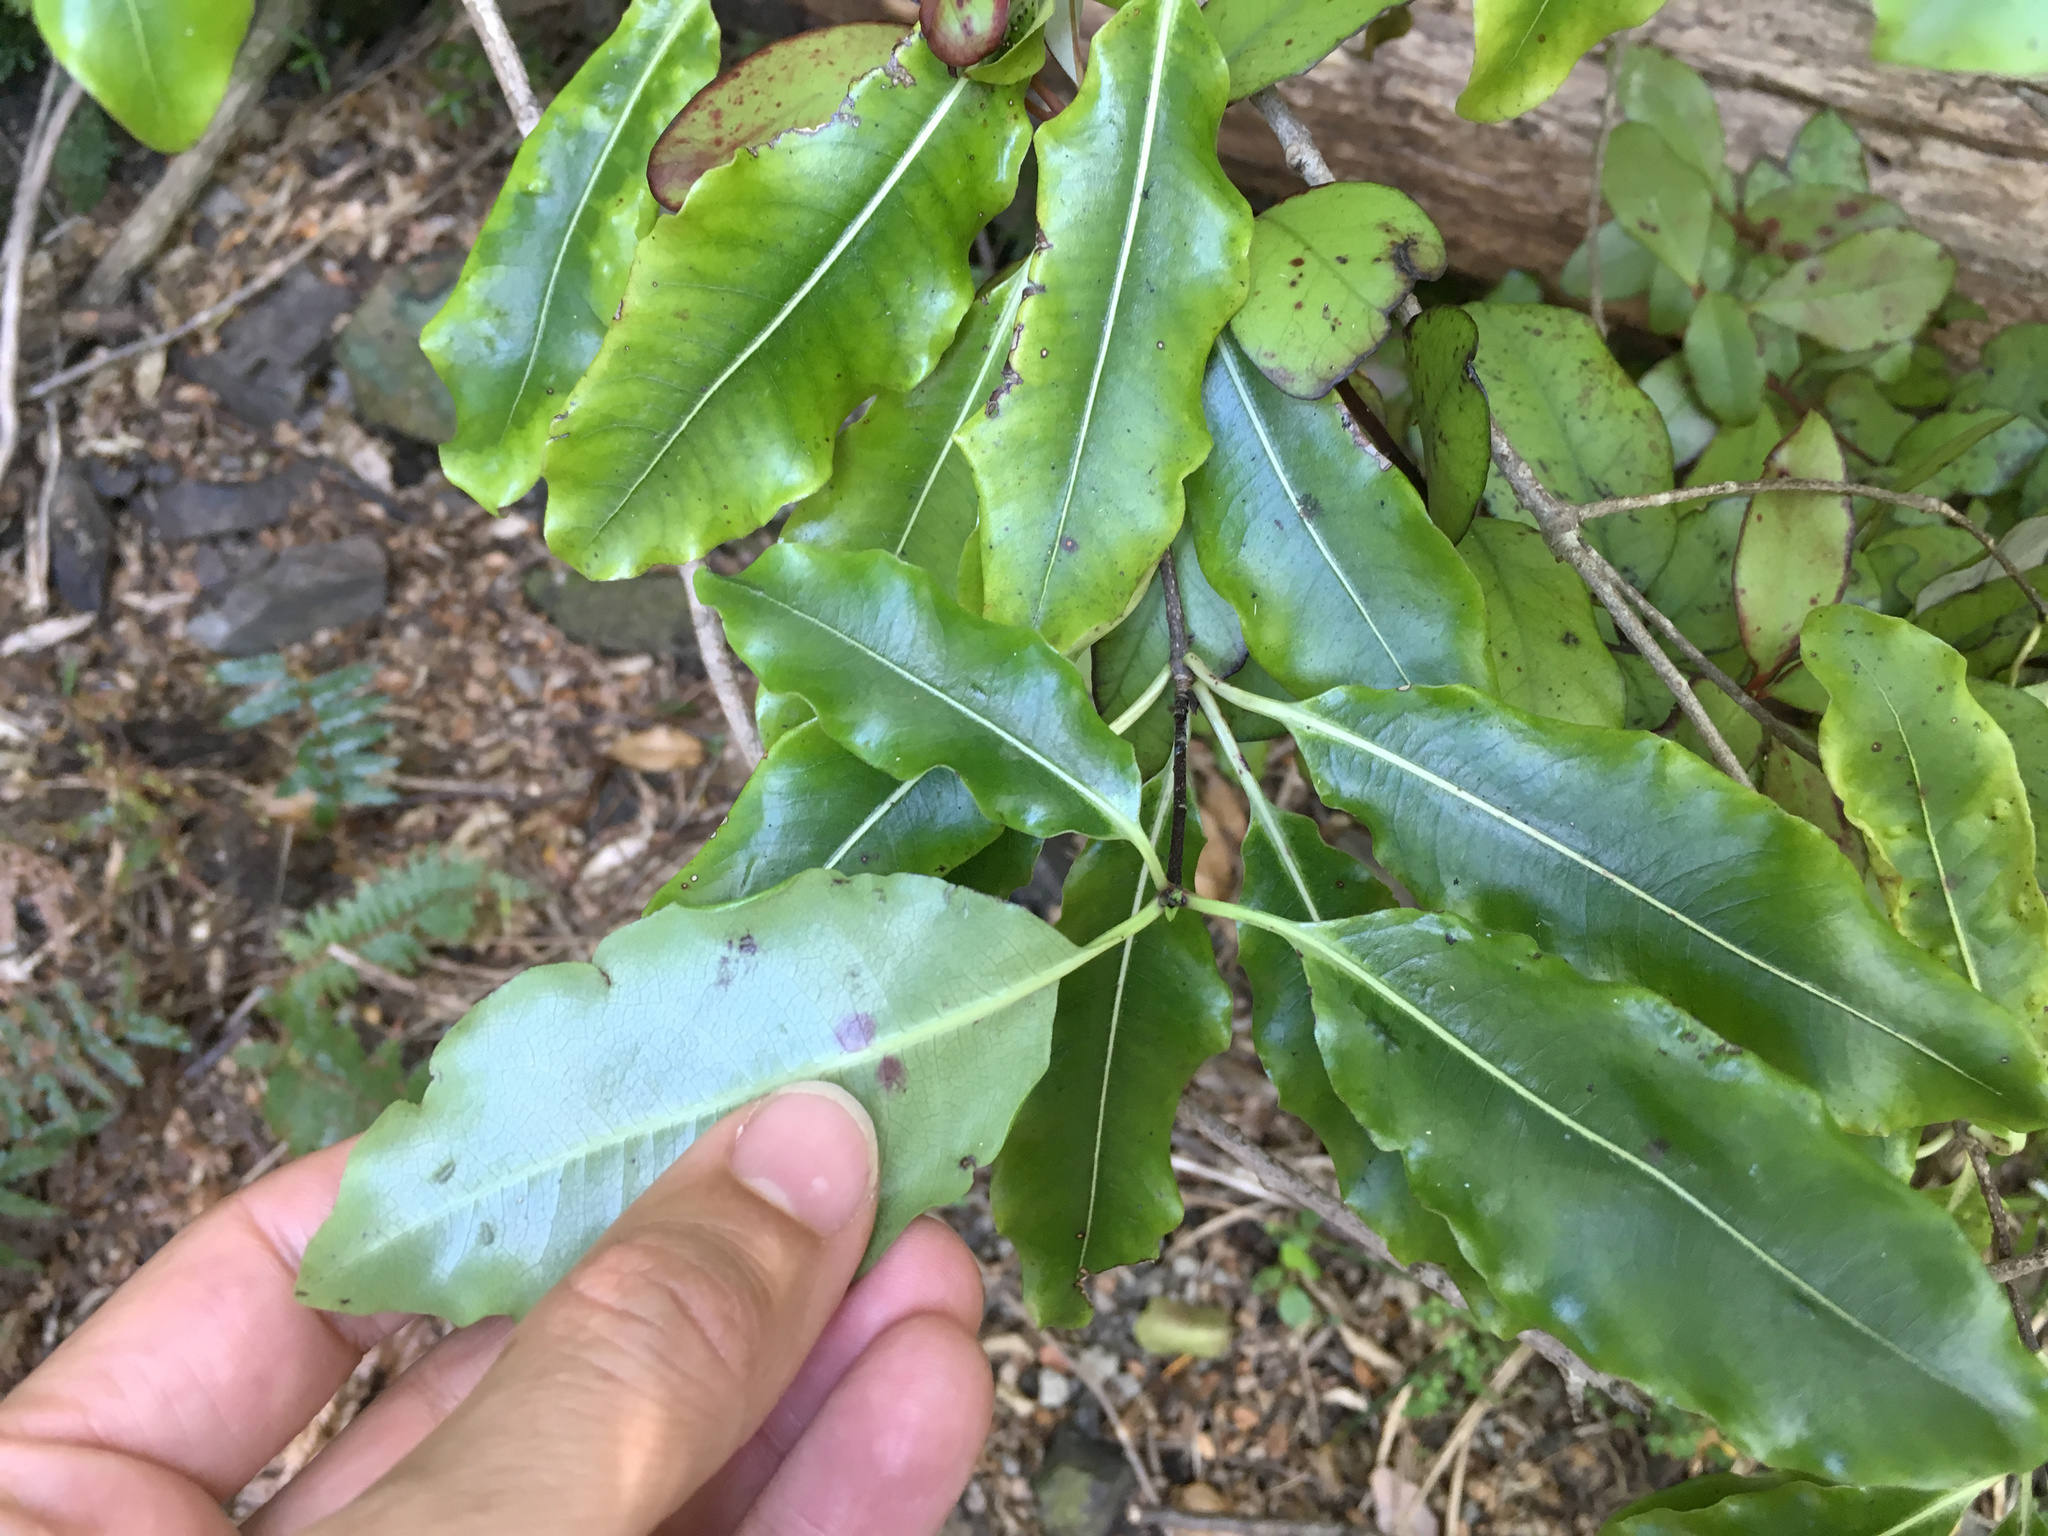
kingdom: Plantae
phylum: Tracheophyta
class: Magnoliopsida
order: Apiales
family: Pittosporaceae
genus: Pittosporum
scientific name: Pittosporum eugenioides
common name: Lemonwood
